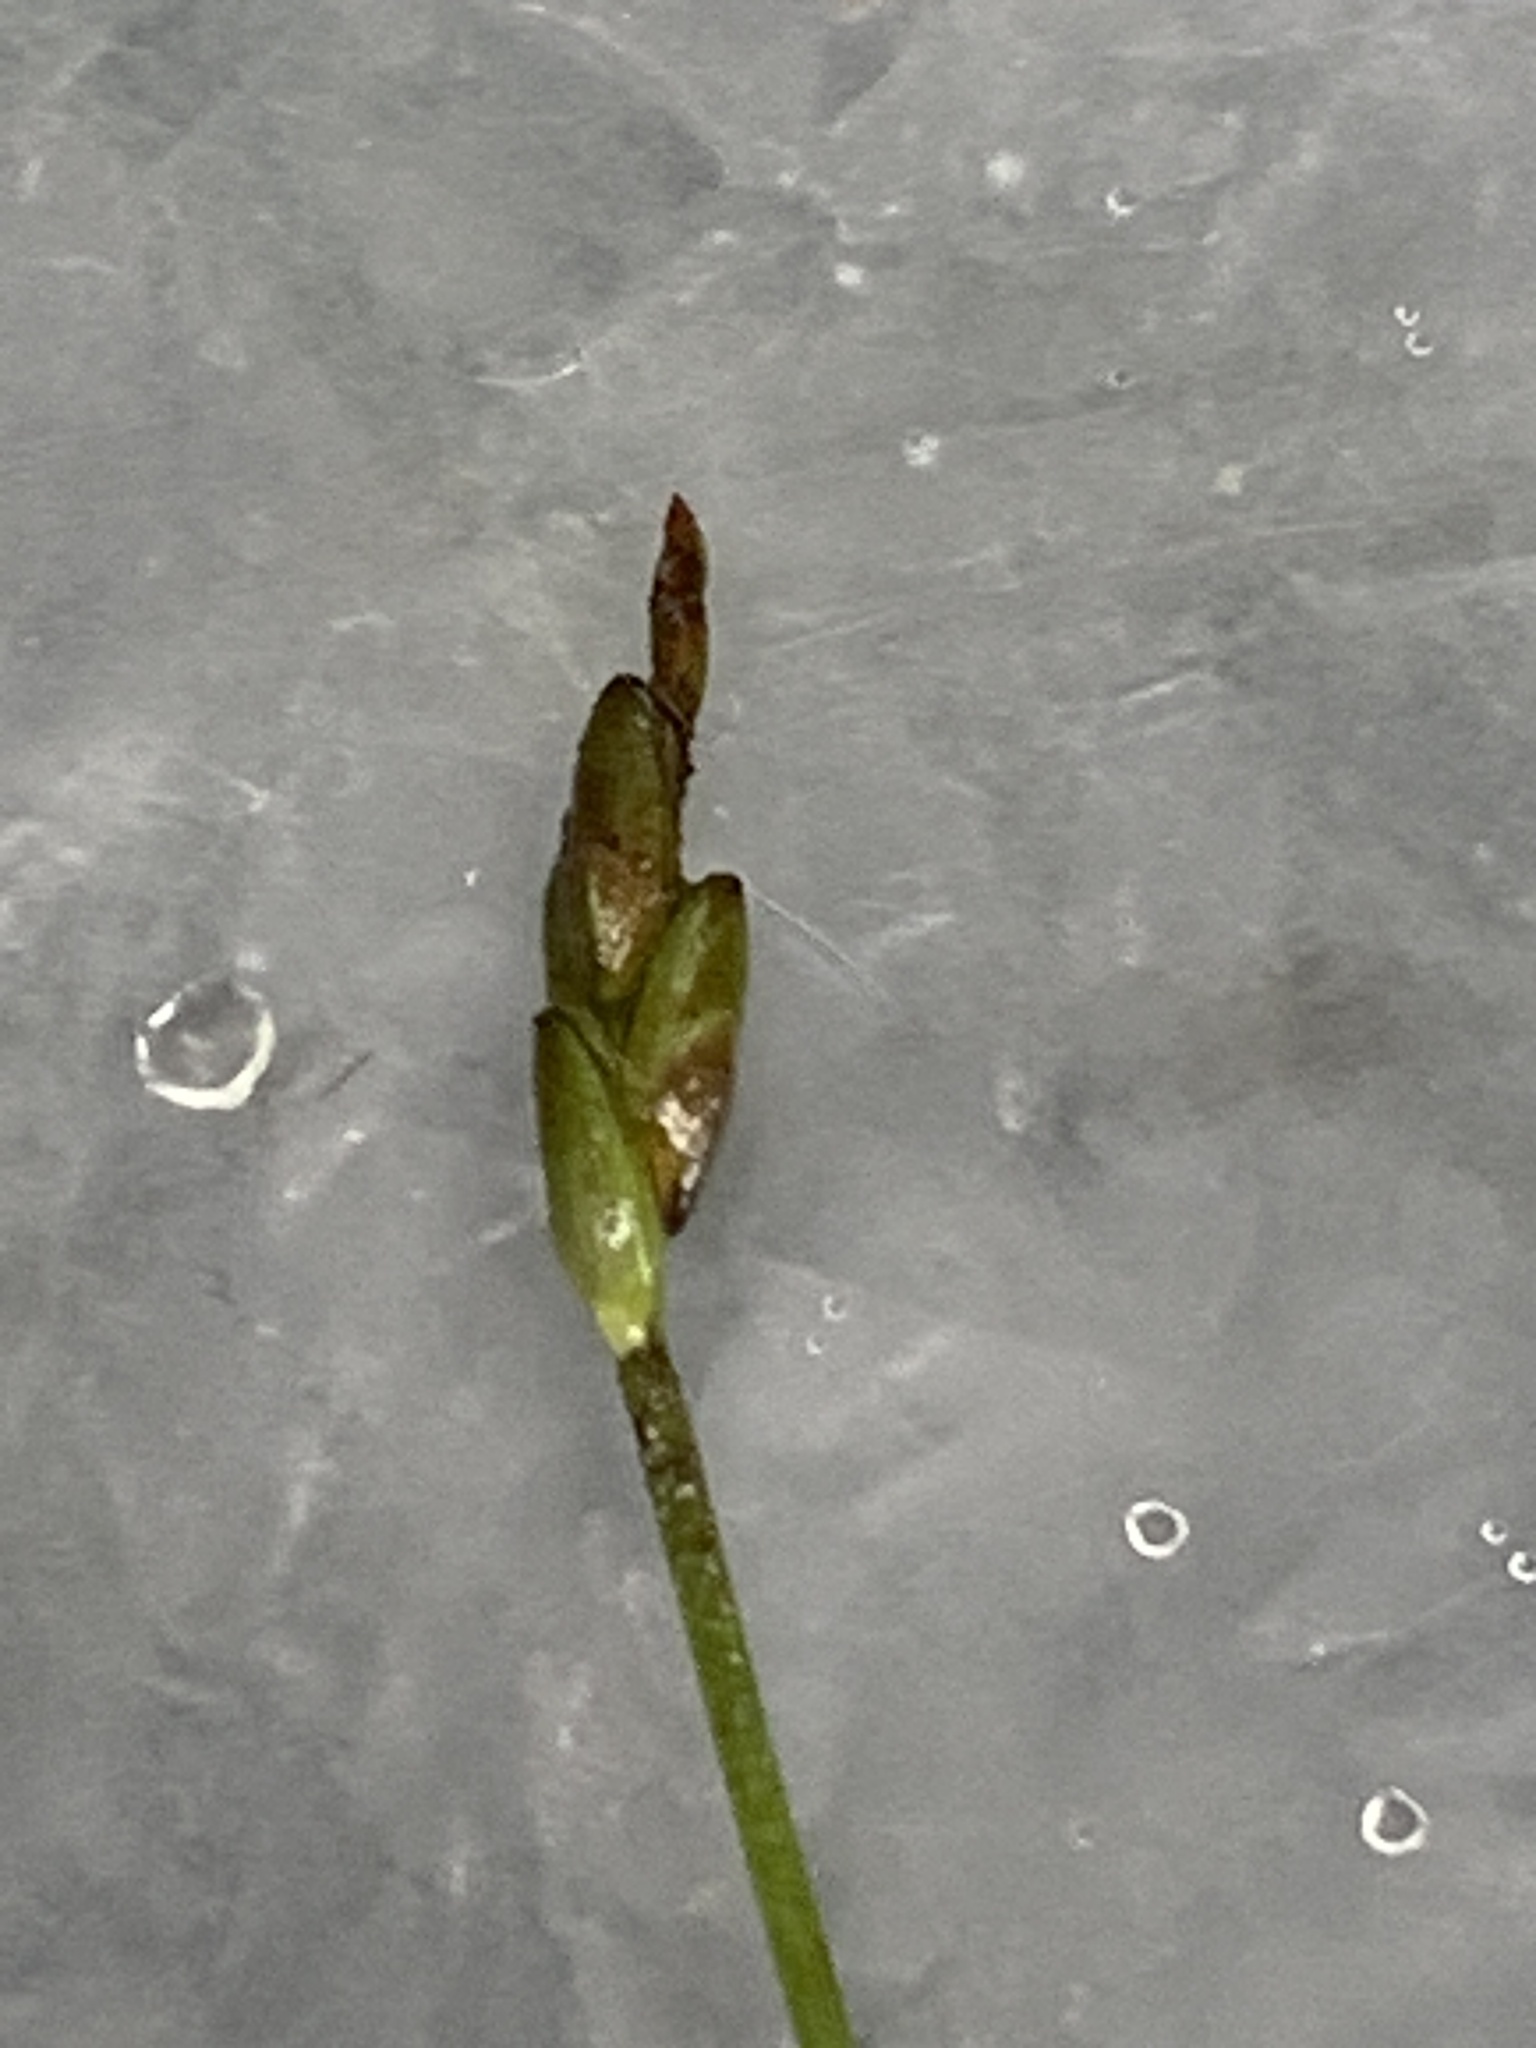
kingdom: Plantae
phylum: Tracheophyta
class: Liliopsida
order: Poales
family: Cyperaceae
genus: Carex
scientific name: Carex leptalea
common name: Bristly-stalked sedge
